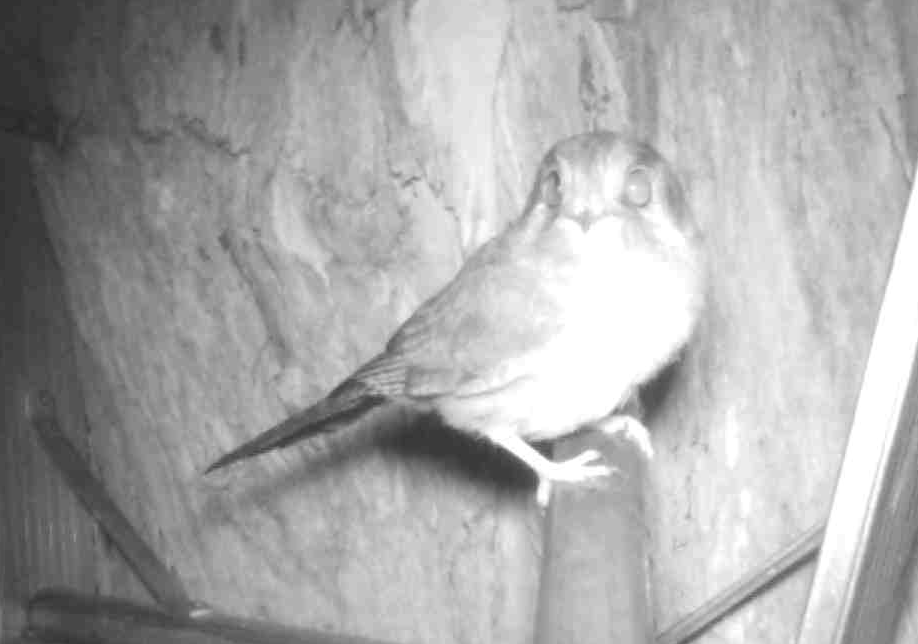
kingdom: Animalia
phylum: Chordata
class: Aves
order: Apodiformes
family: Aegothelidae
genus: Aegotheles
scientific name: Aegotheles cristatus
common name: Australian owlet-nightjar
